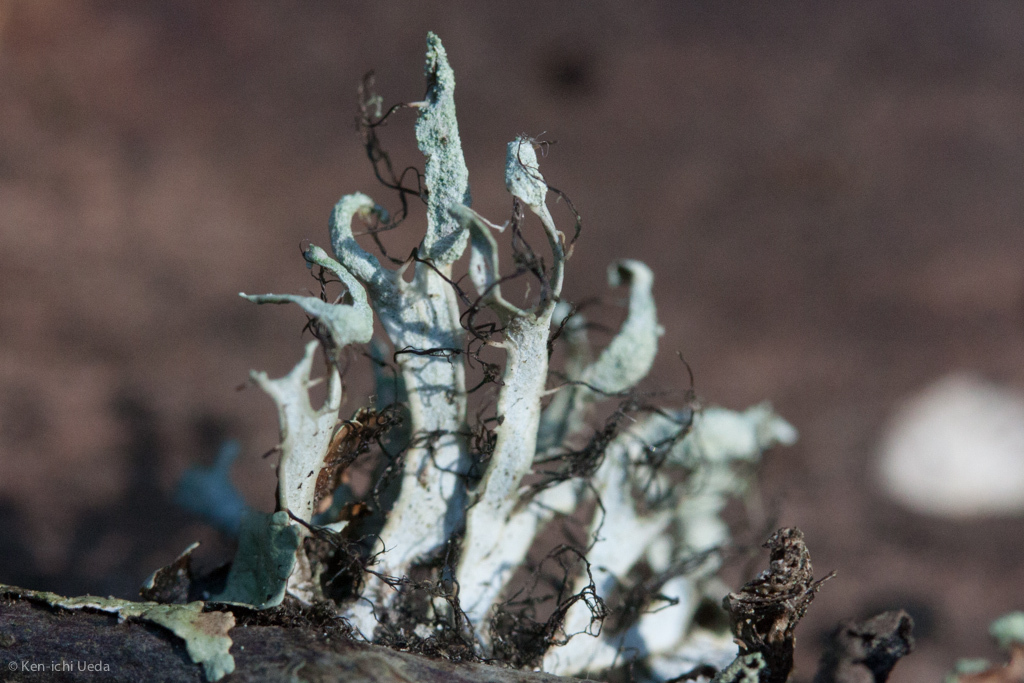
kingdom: Fungi
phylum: Ascomycota
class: Lecanoromycetes
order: Caliciales
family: Physciaceae
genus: Leucodermia
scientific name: Leucodermia leucomelos
